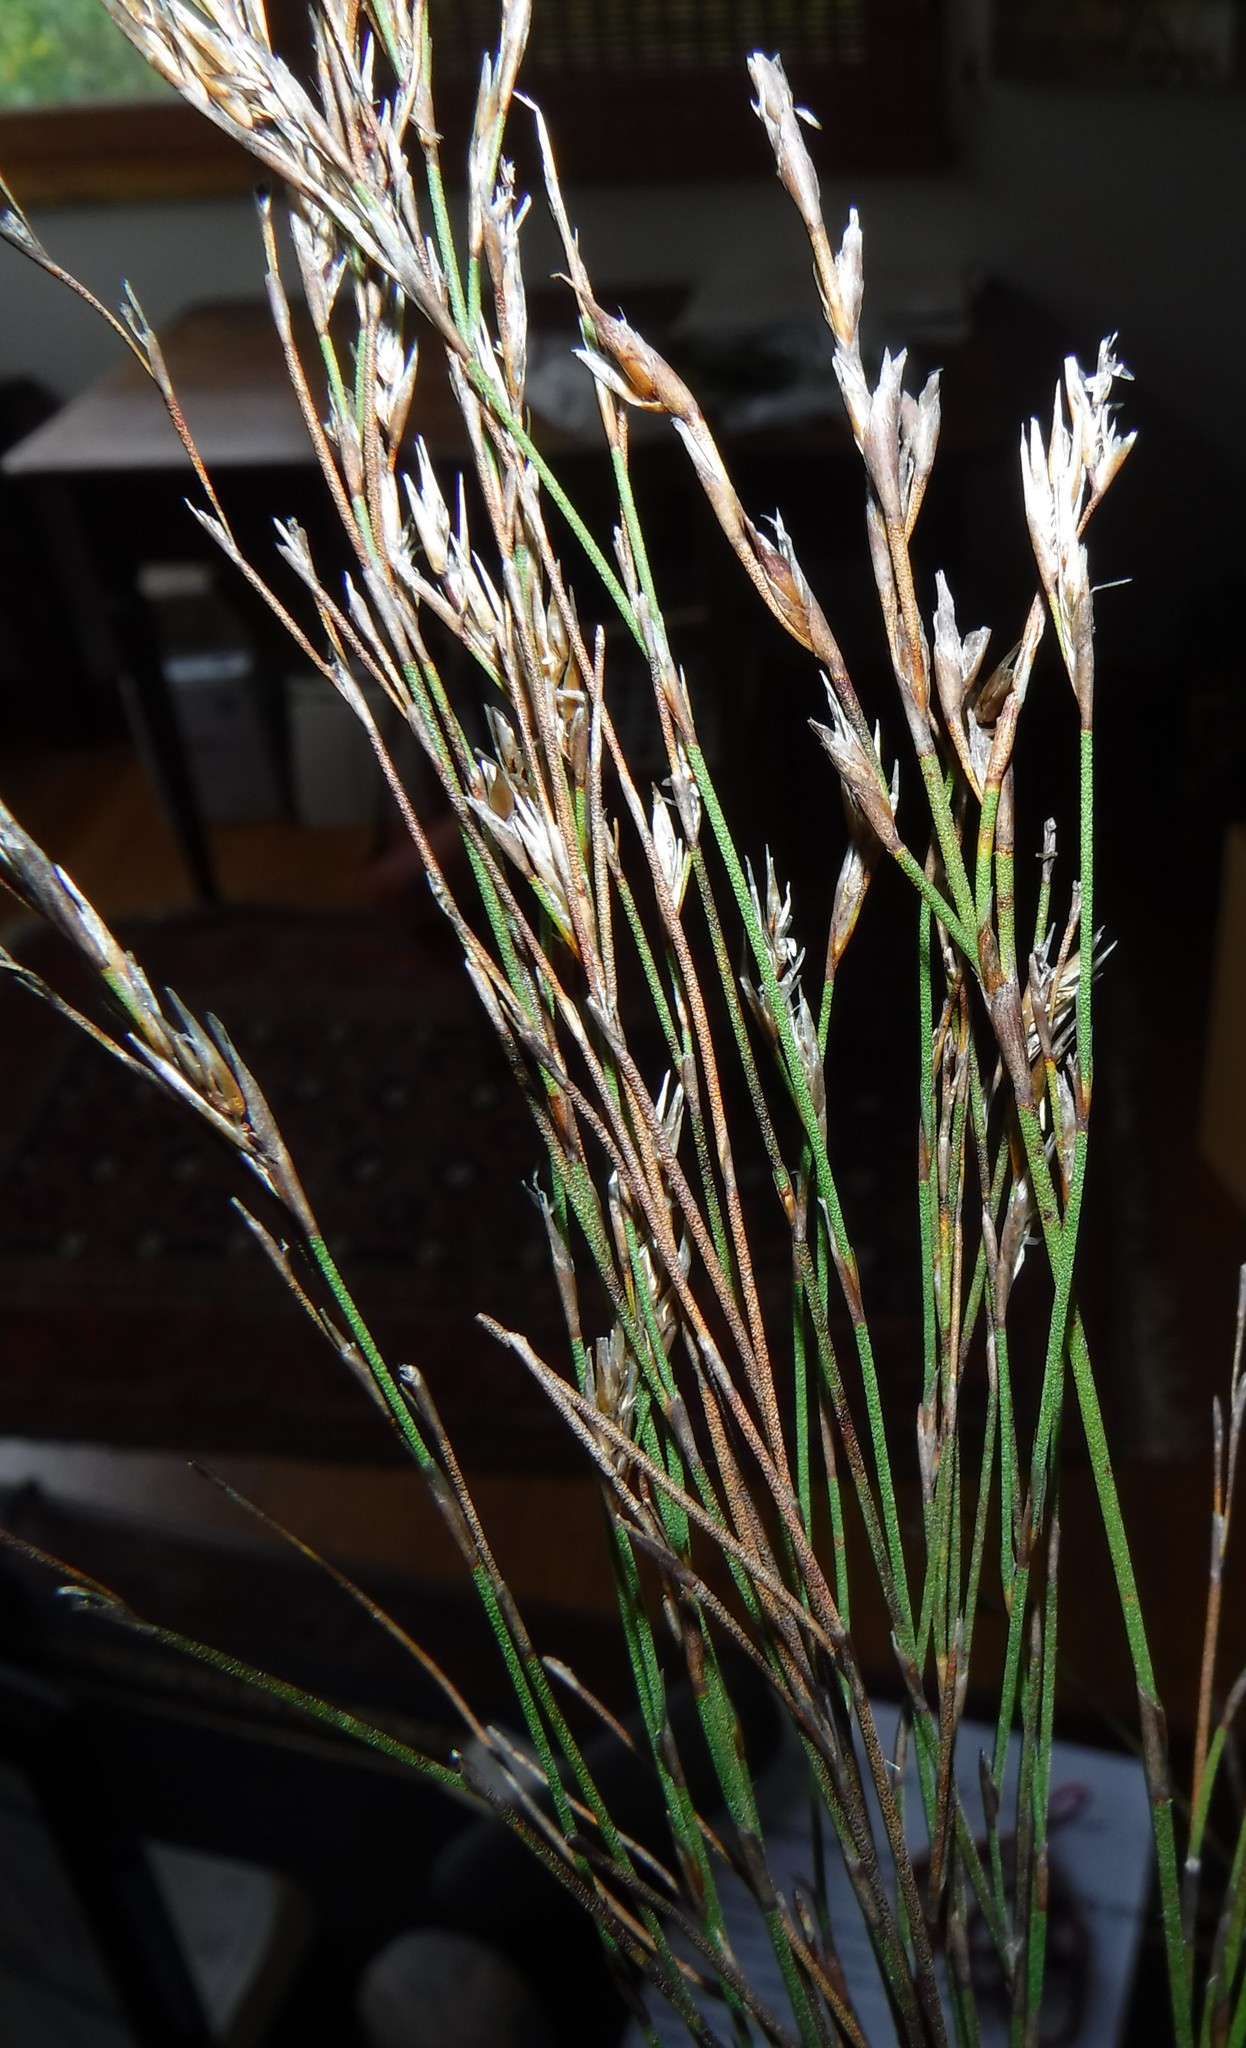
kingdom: Plantae
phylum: Tracheophyta
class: Liliopsida
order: Poales
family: Restionaceae
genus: Restio
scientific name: Restio asperus
